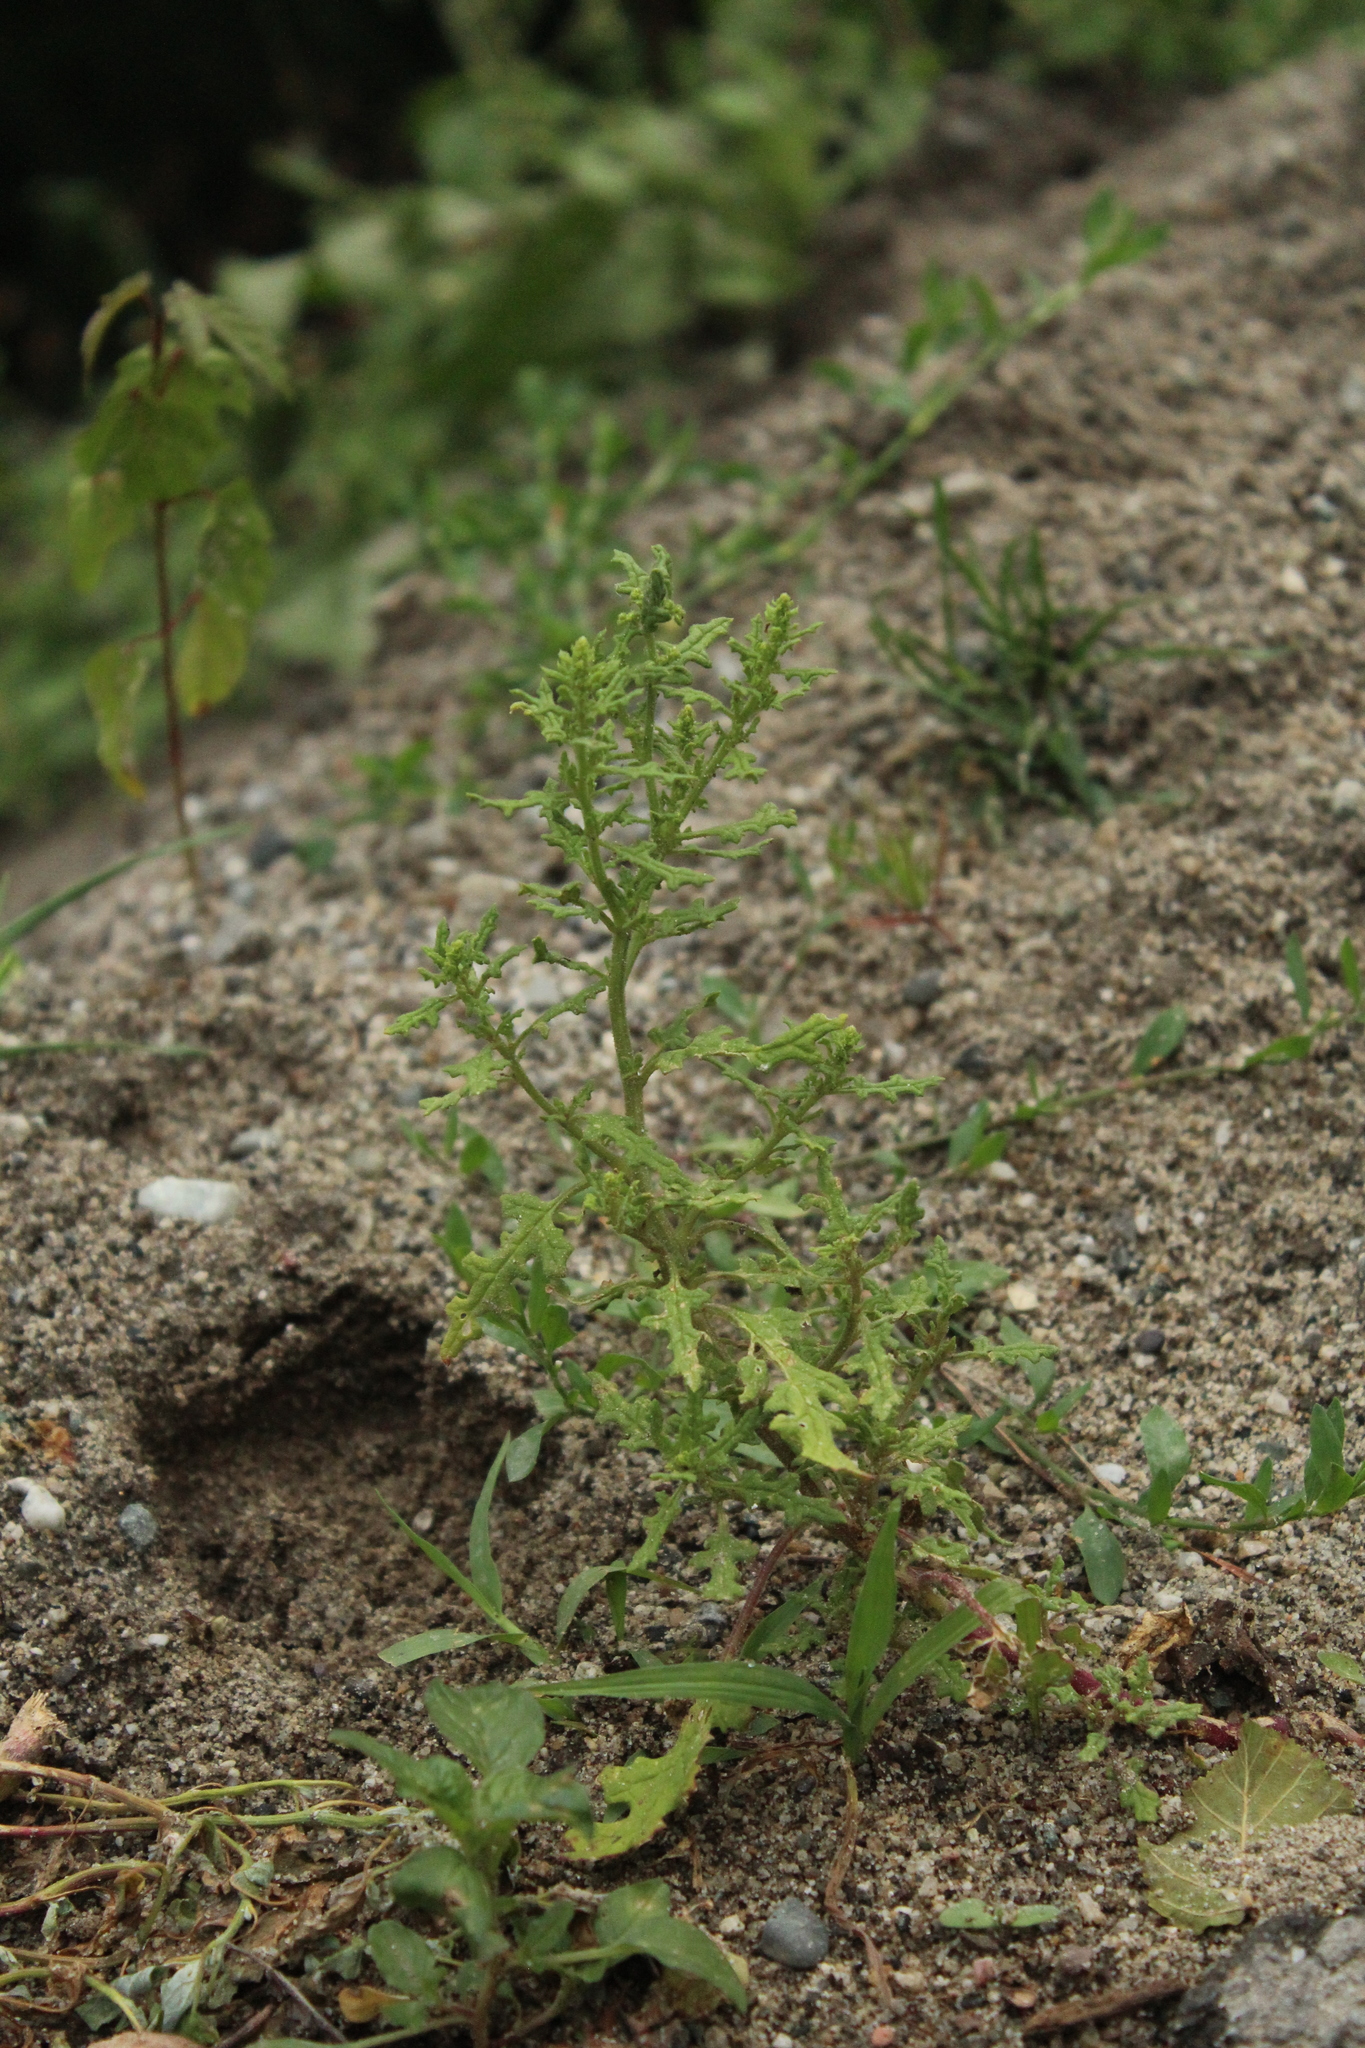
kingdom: Plantae
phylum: Tracheophyta
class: Magnoliopsida
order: Caryophyllales
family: Amaranthaceae
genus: Dysphania
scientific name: Dysphania botrys
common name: Feather-geranium
